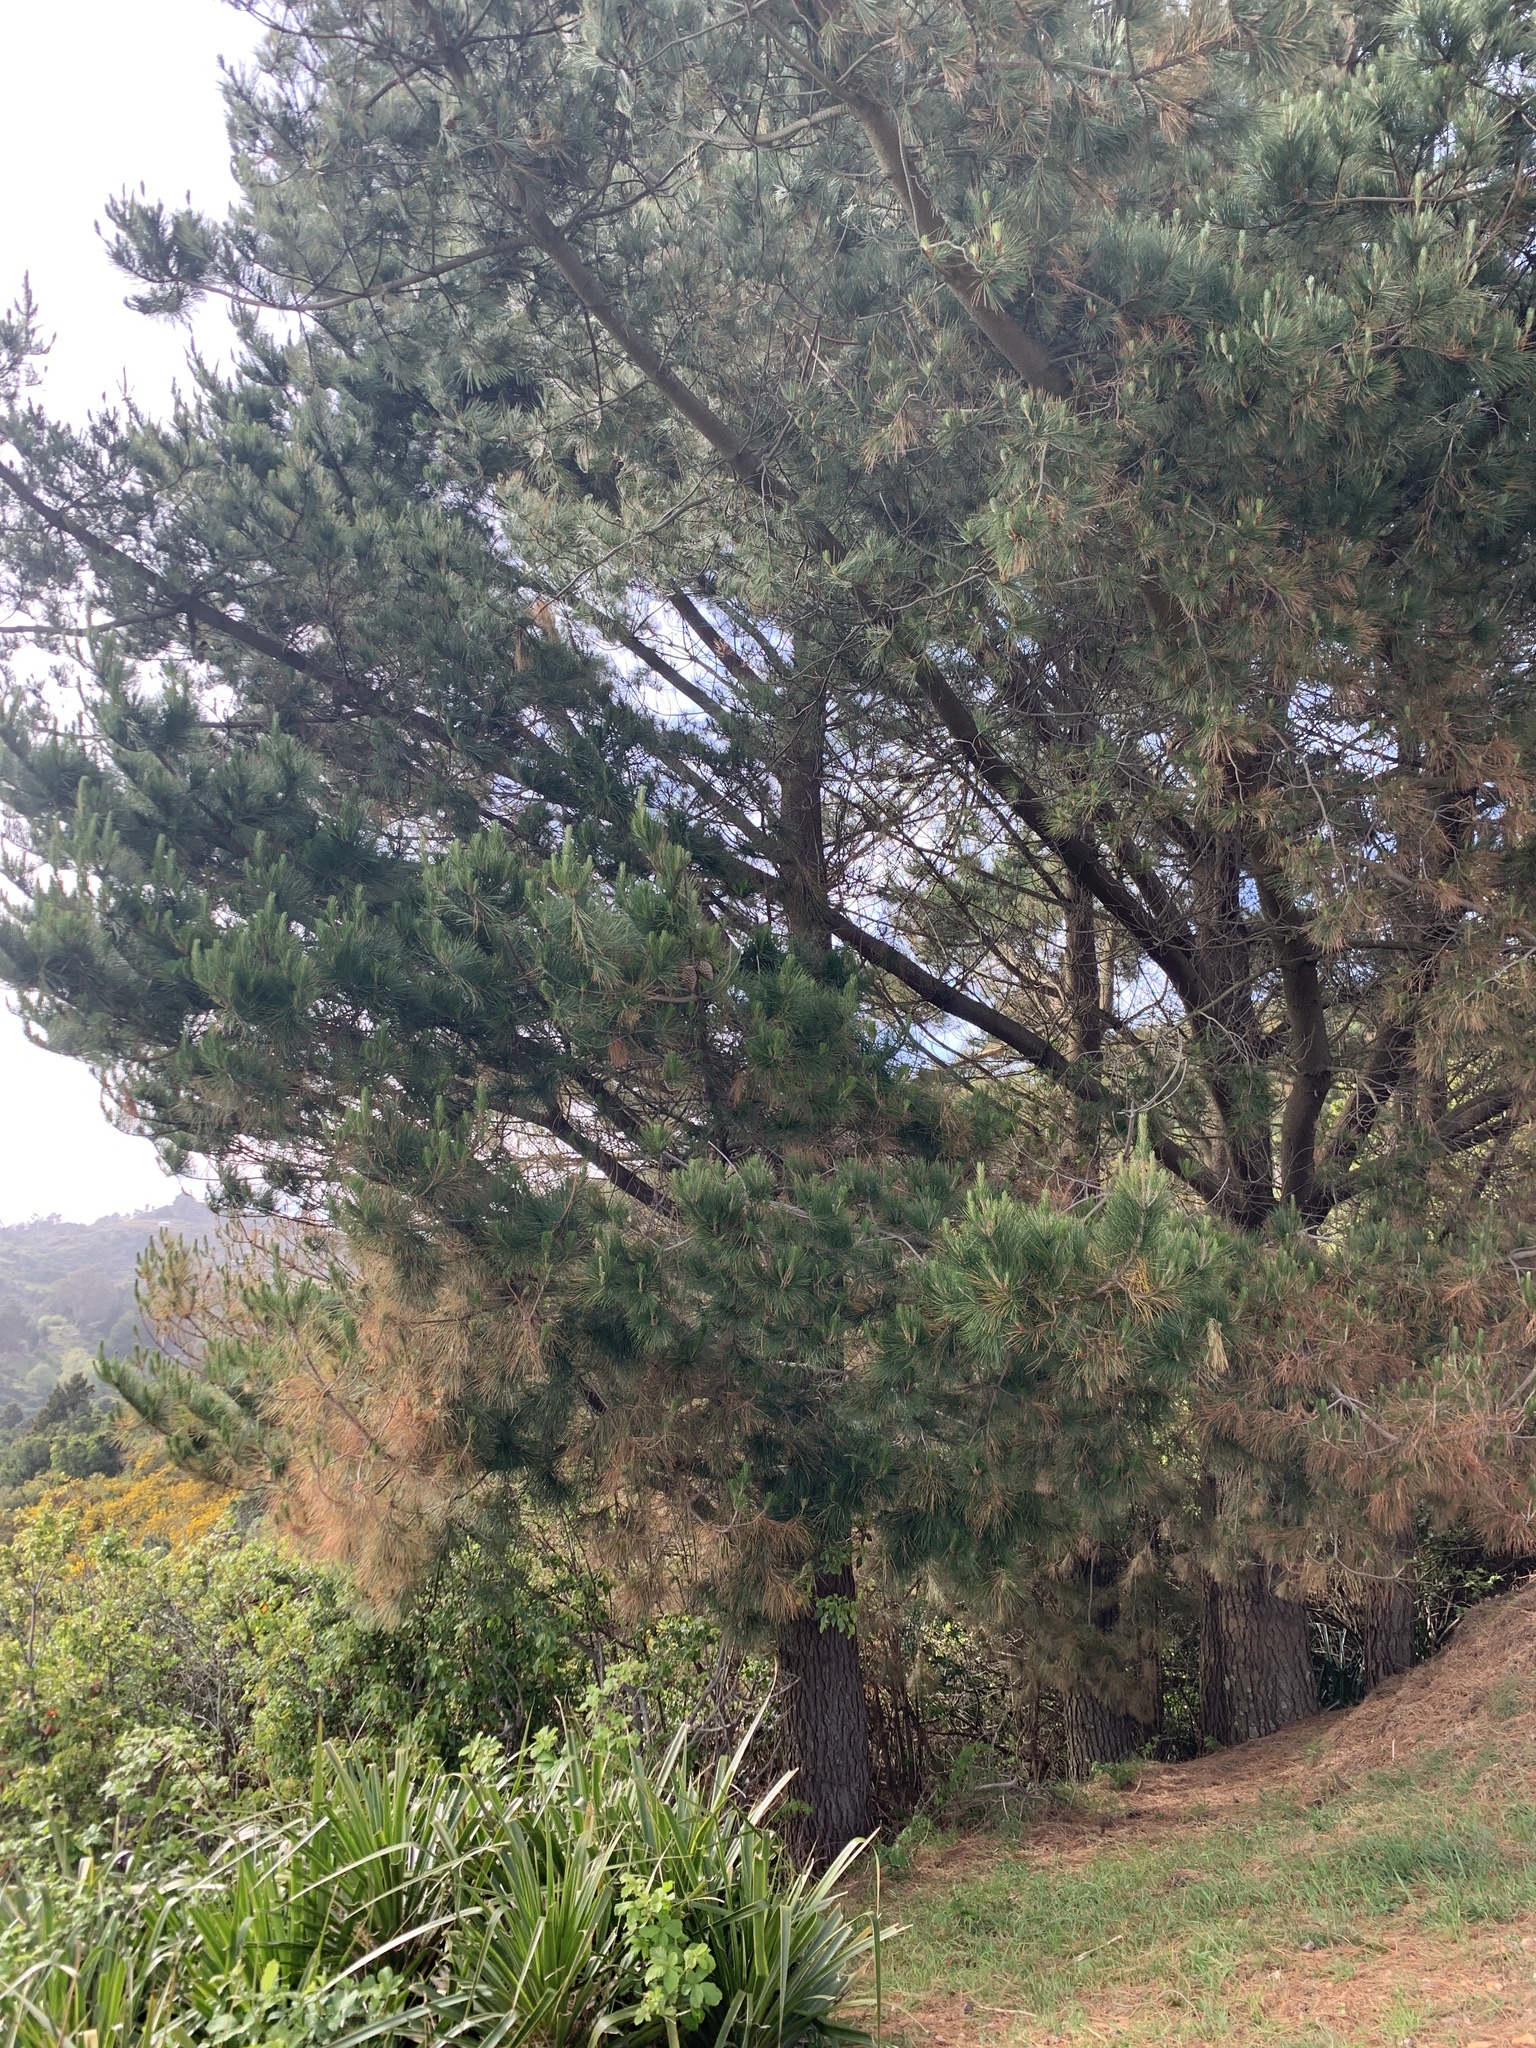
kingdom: Plantae
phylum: Tracheophyta
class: Pinopsida
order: Pinales
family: Pinaceae
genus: Pinus
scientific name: Pinus radiata
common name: Monterey pine
